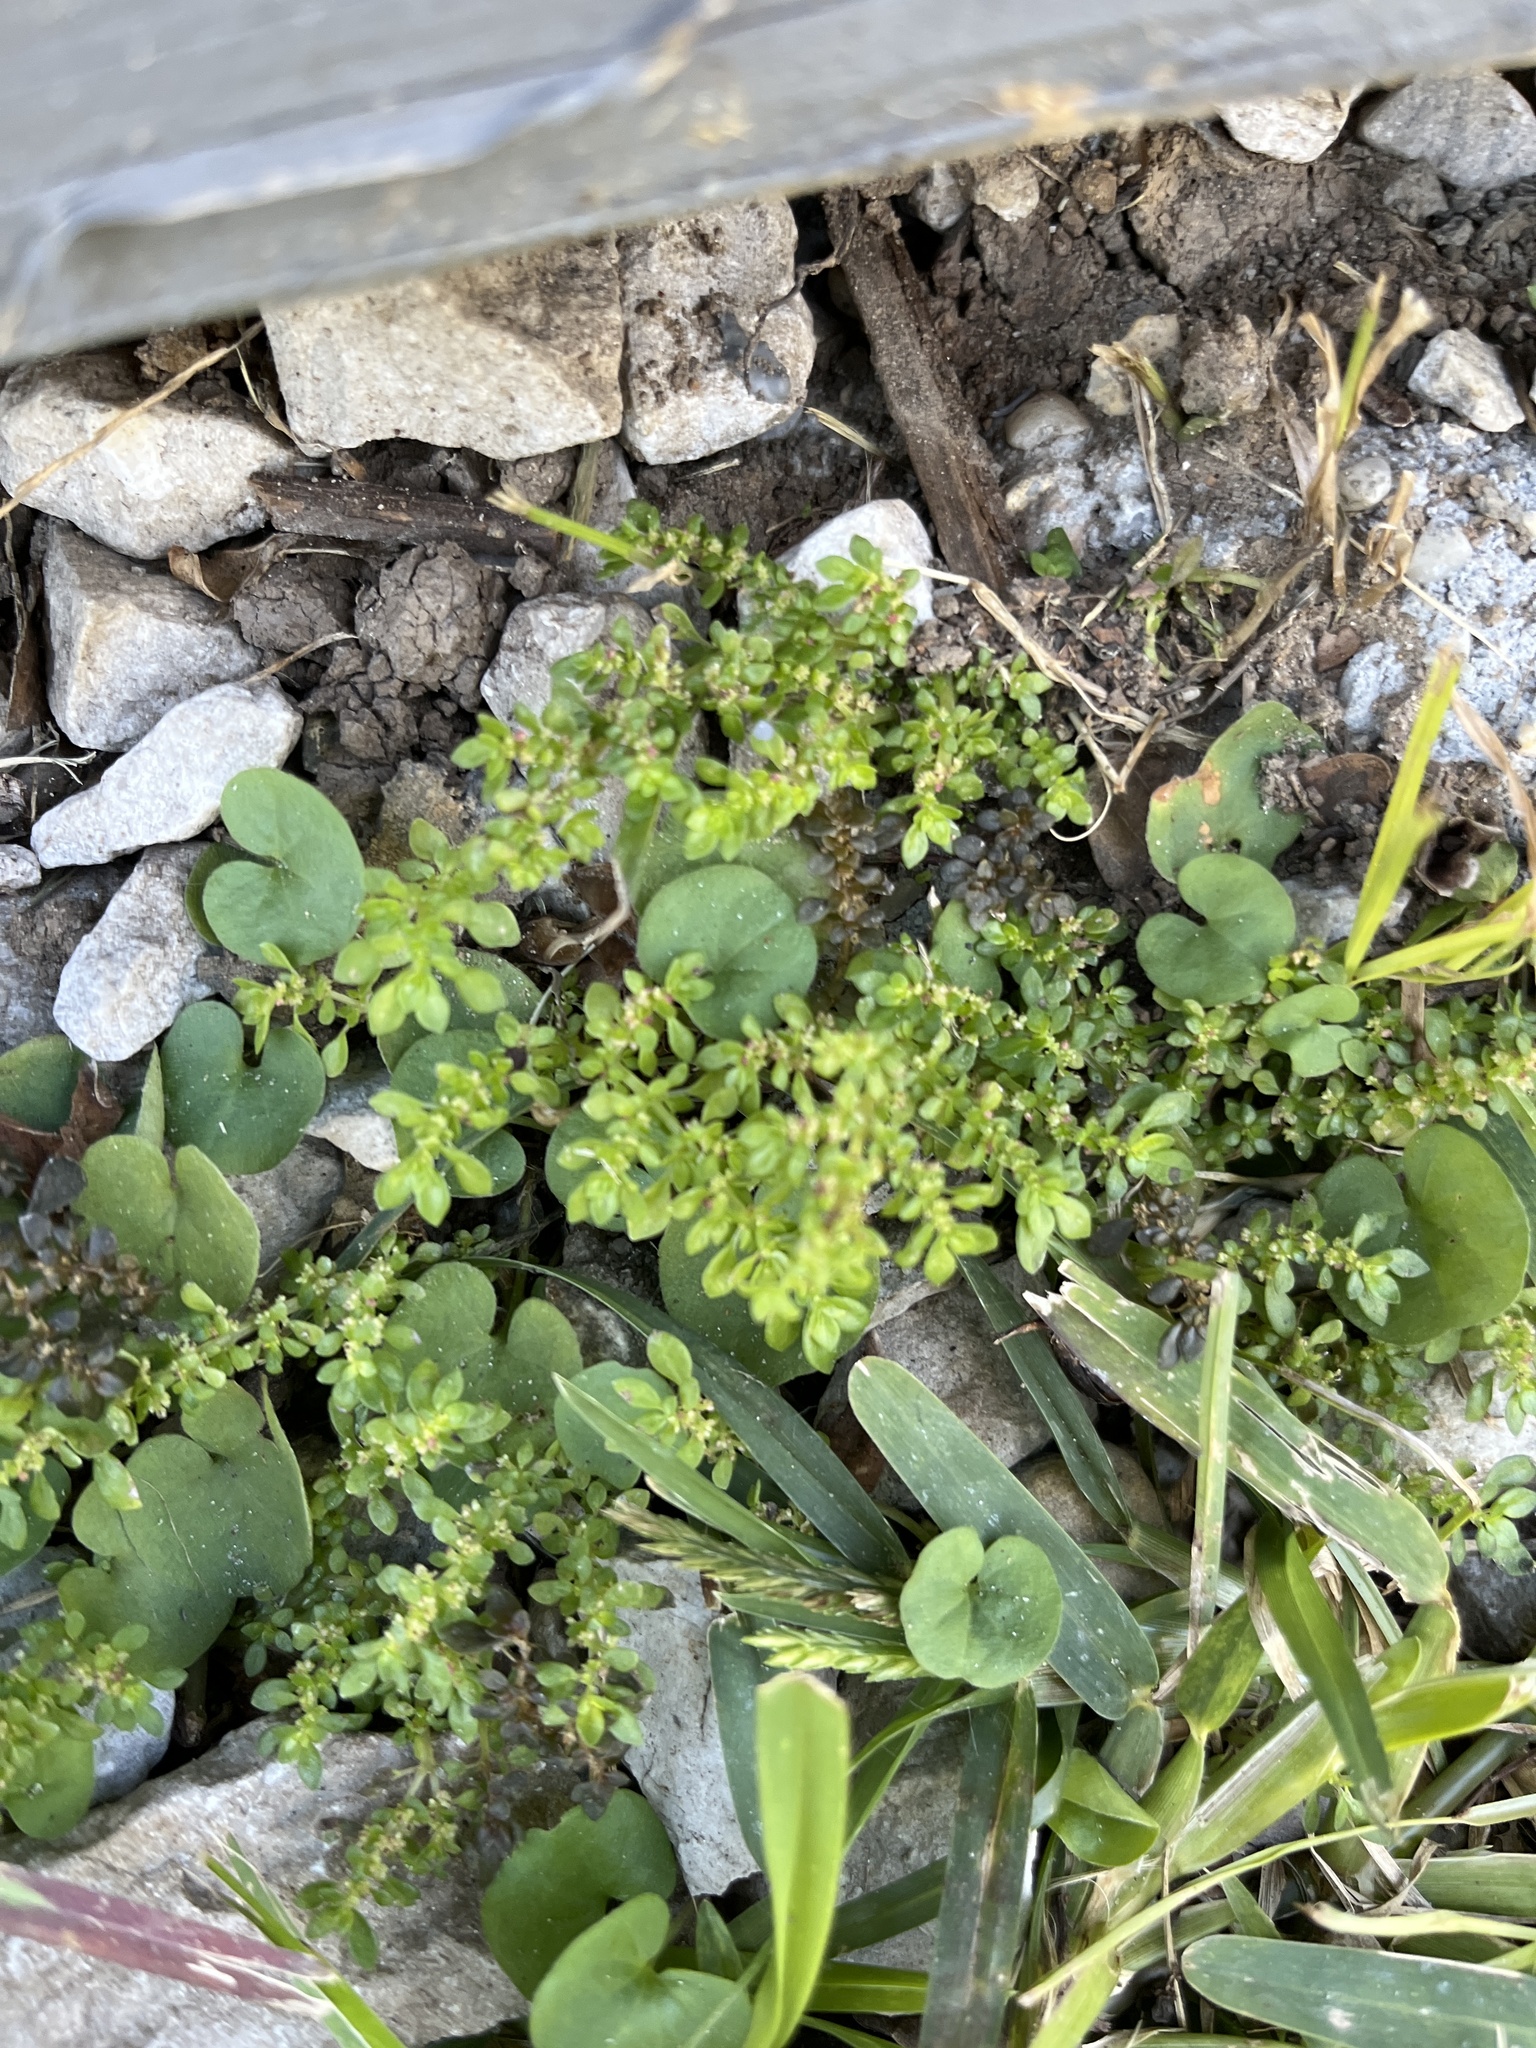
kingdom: Plantae
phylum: Tracheophyta
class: Magnoliopsida
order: Rosales
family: Urticaceae
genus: Pilea
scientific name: Pilea microphylla
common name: Artillery-plant
